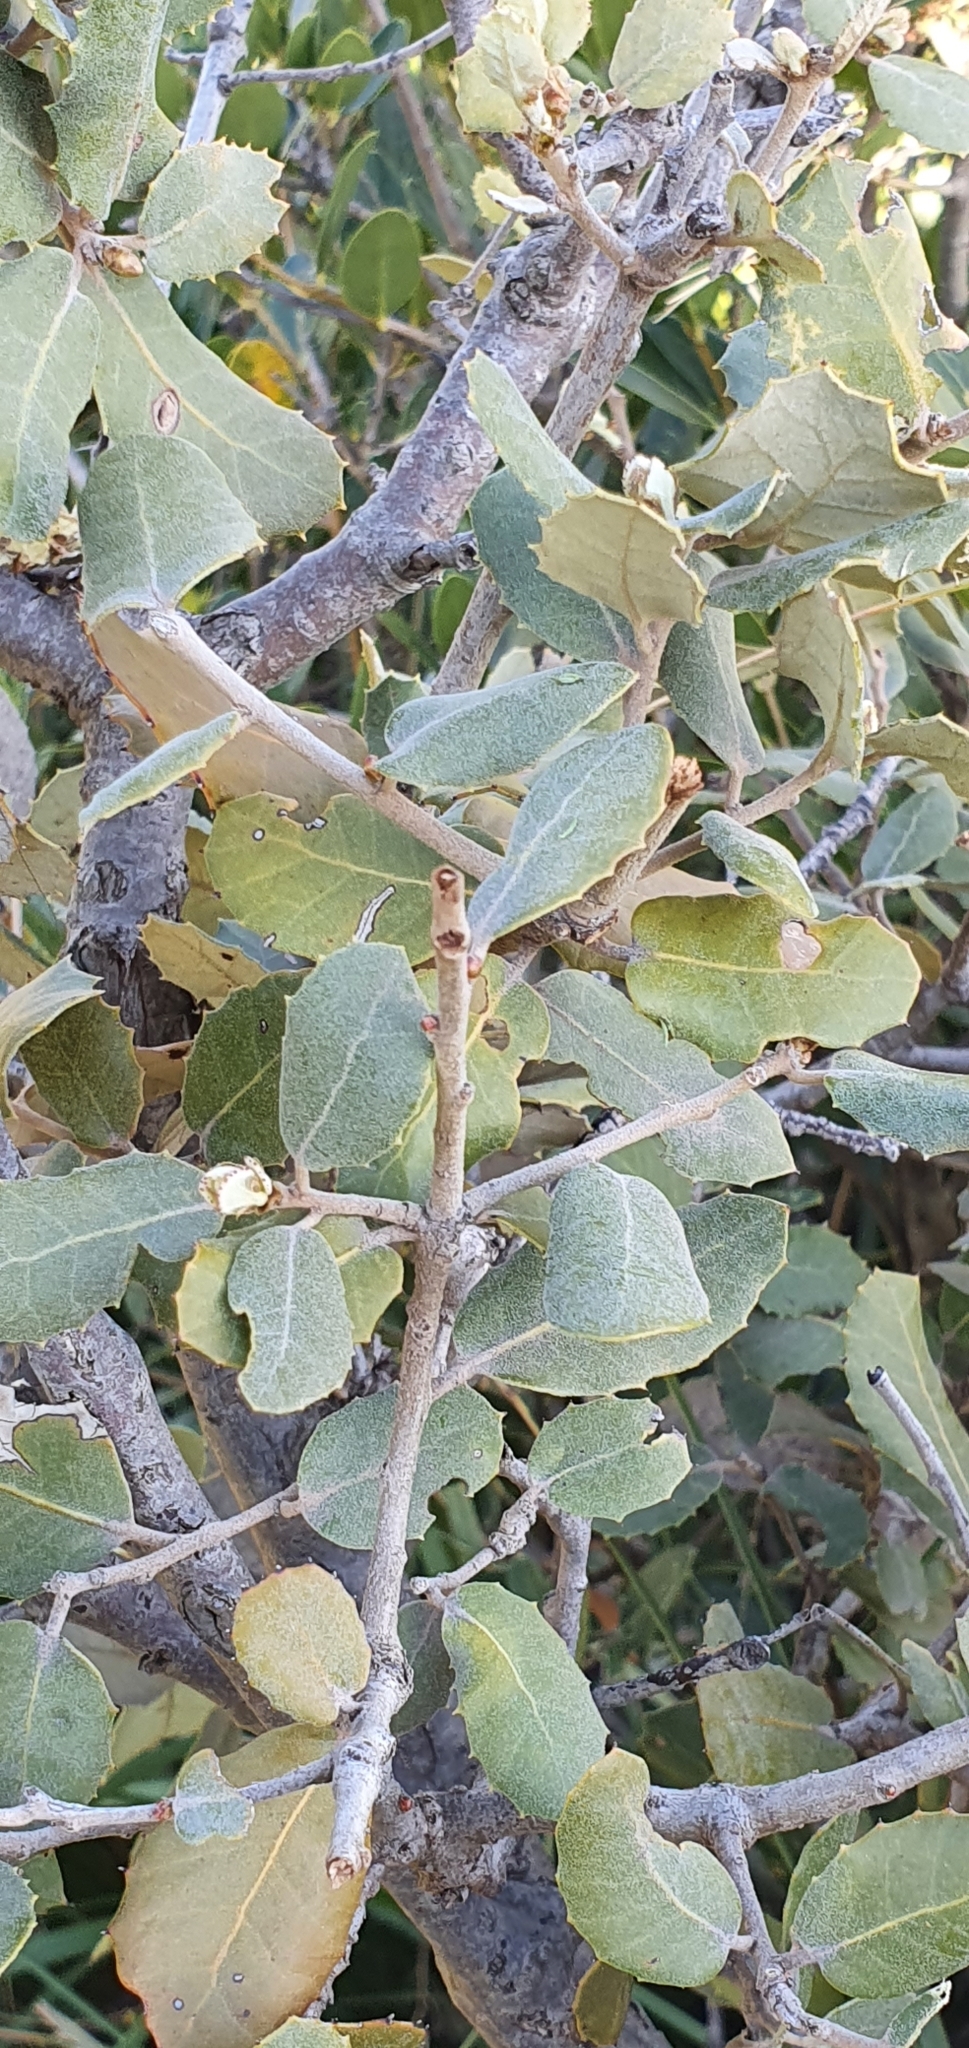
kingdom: Plantae
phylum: Tracheophyta
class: Magnoliopsida
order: Fagales
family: Fagaceae
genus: Quercus
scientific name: Quercus rotundifolia
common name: Holm oak
